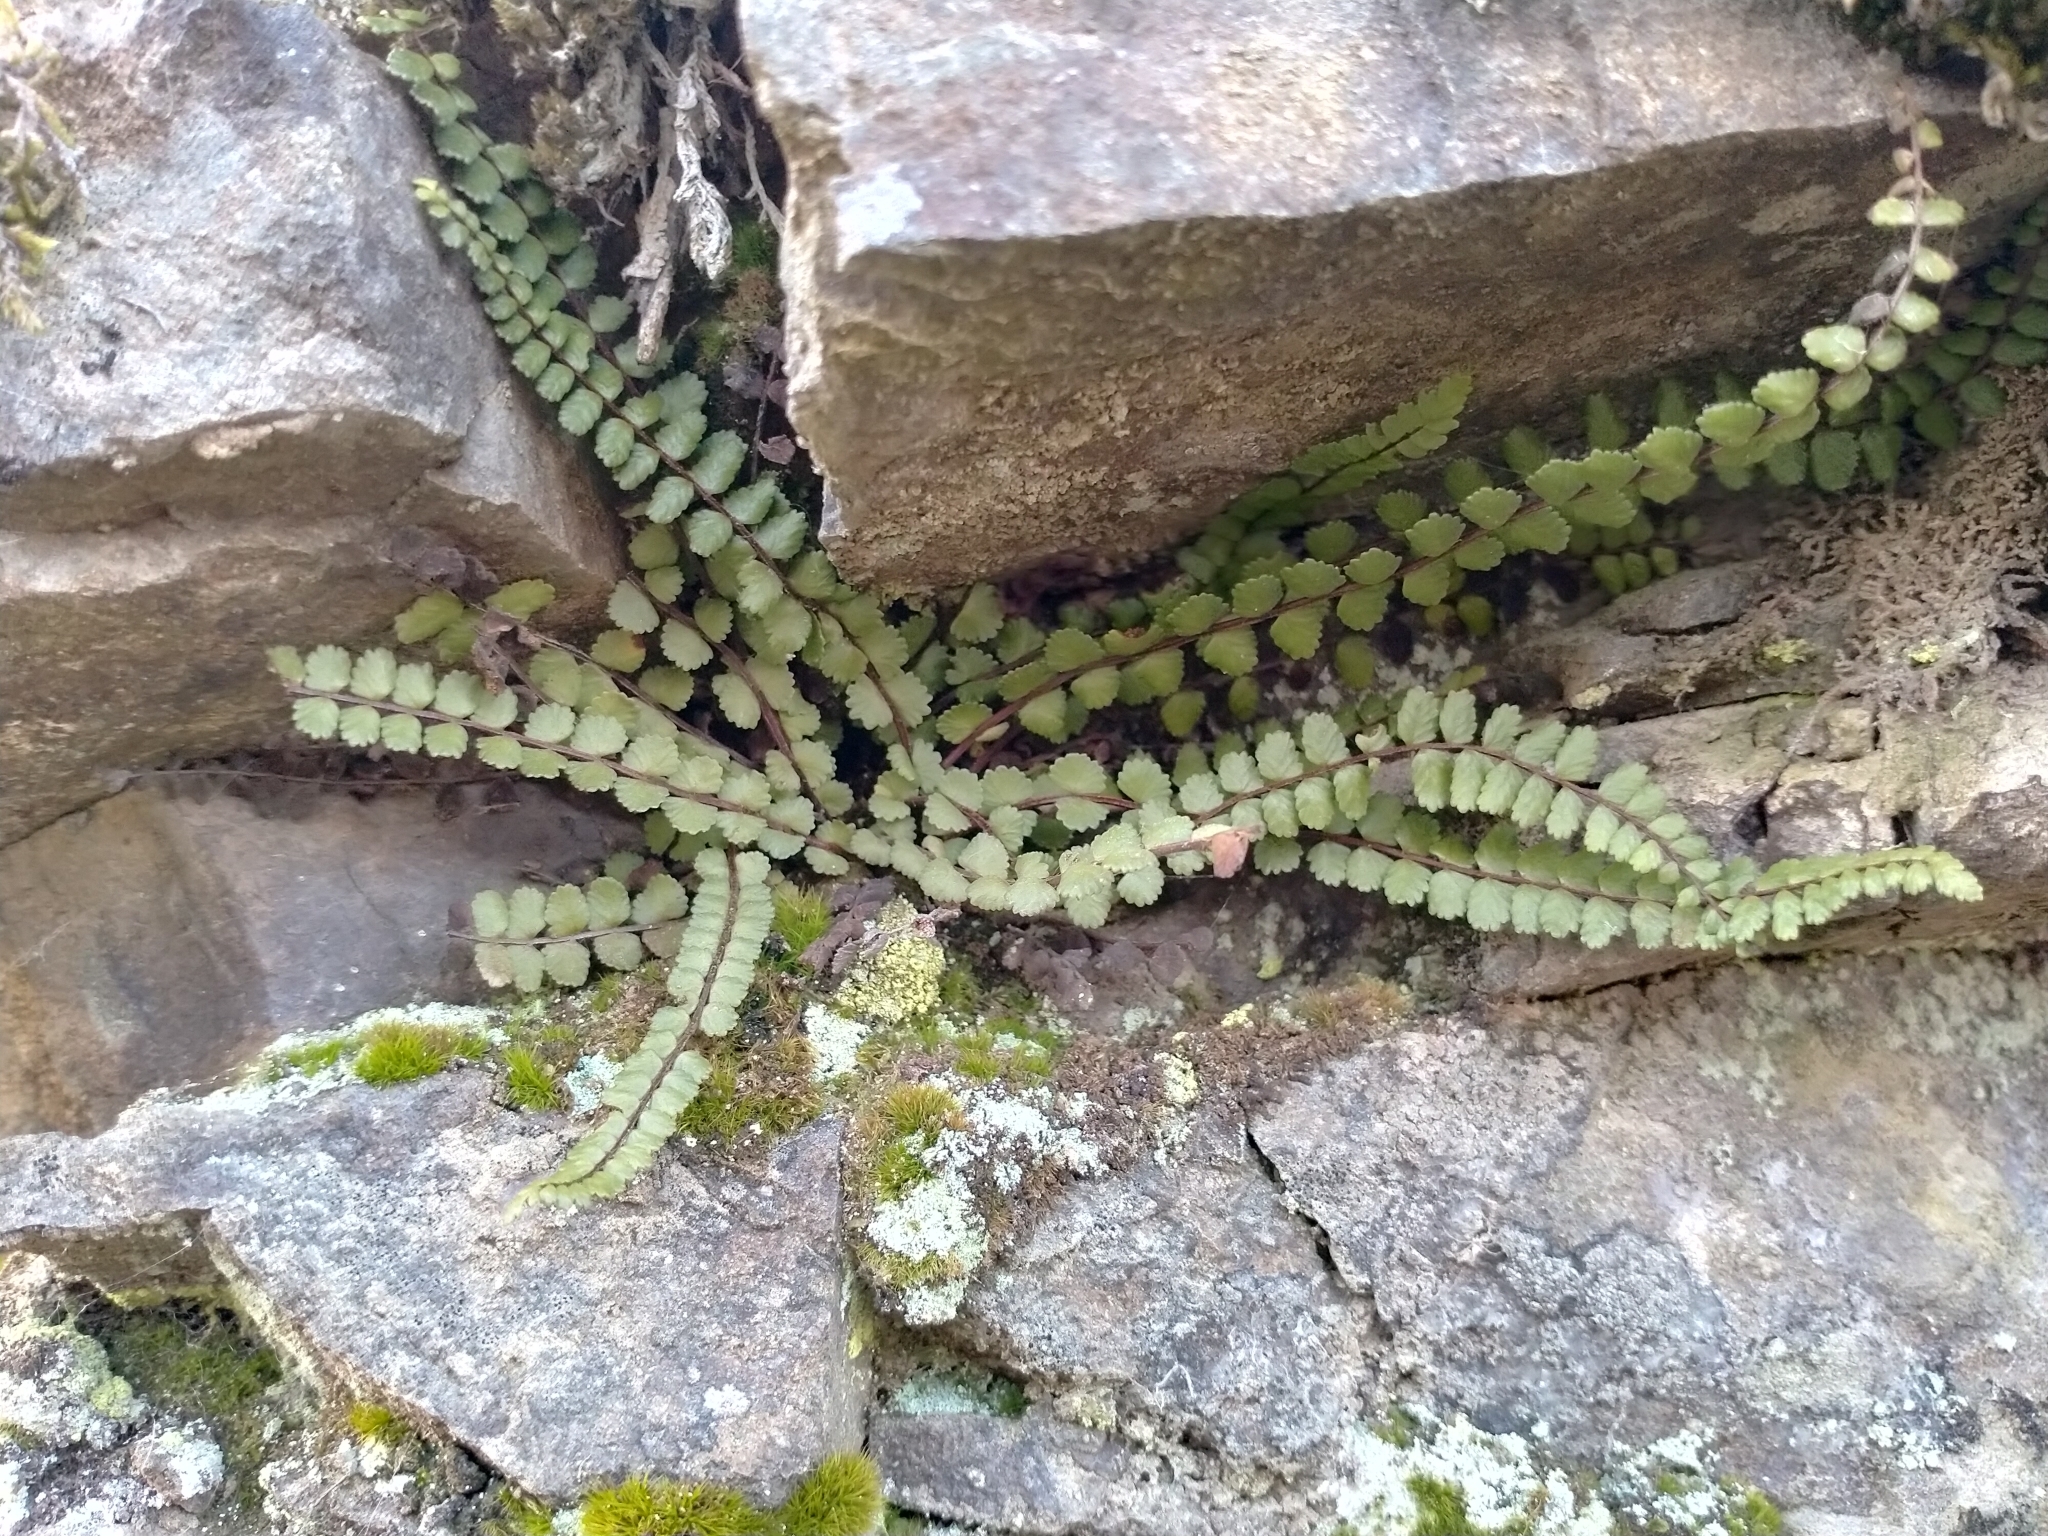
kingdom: Plantae
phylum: Tracheophyta
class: Polypodiopsida
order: Polypodiales
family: Aspleniaceae
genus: Asplenium
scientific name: Asplenium trichomanes
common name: Maidenhair spleenwort
